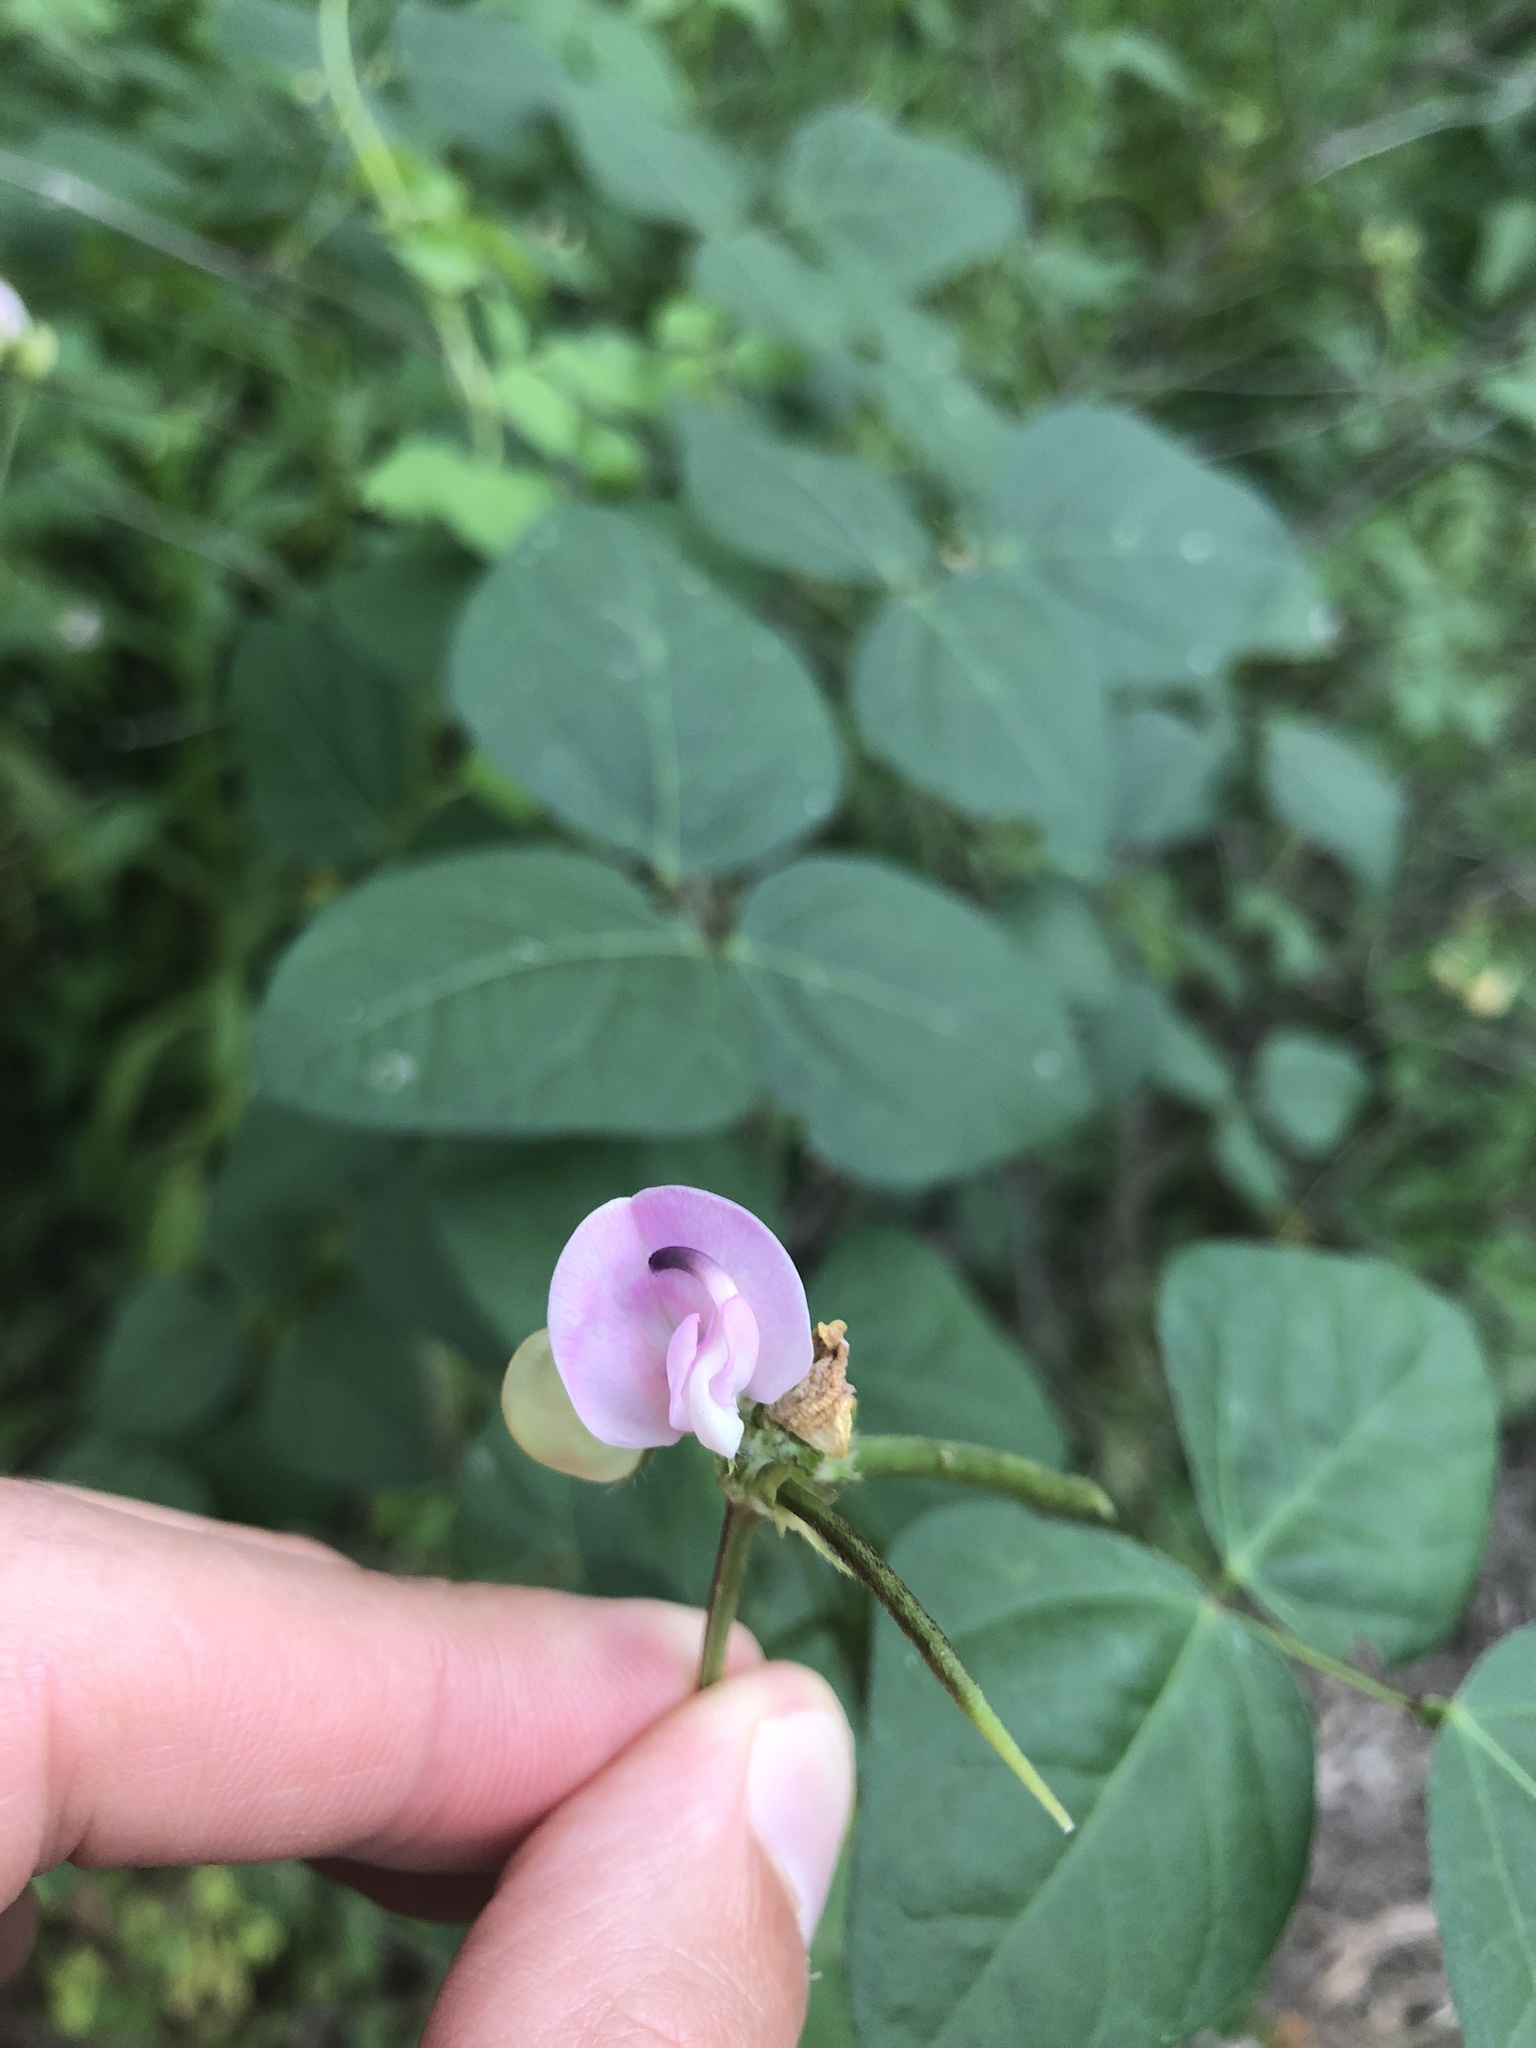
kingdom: Plantae
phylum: Tracheophyta
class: Magnoliopsida
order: Fabales
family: Fabaceae
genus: Strophostyles
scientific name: Strophostyles helvola
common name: Trailing wild bean
